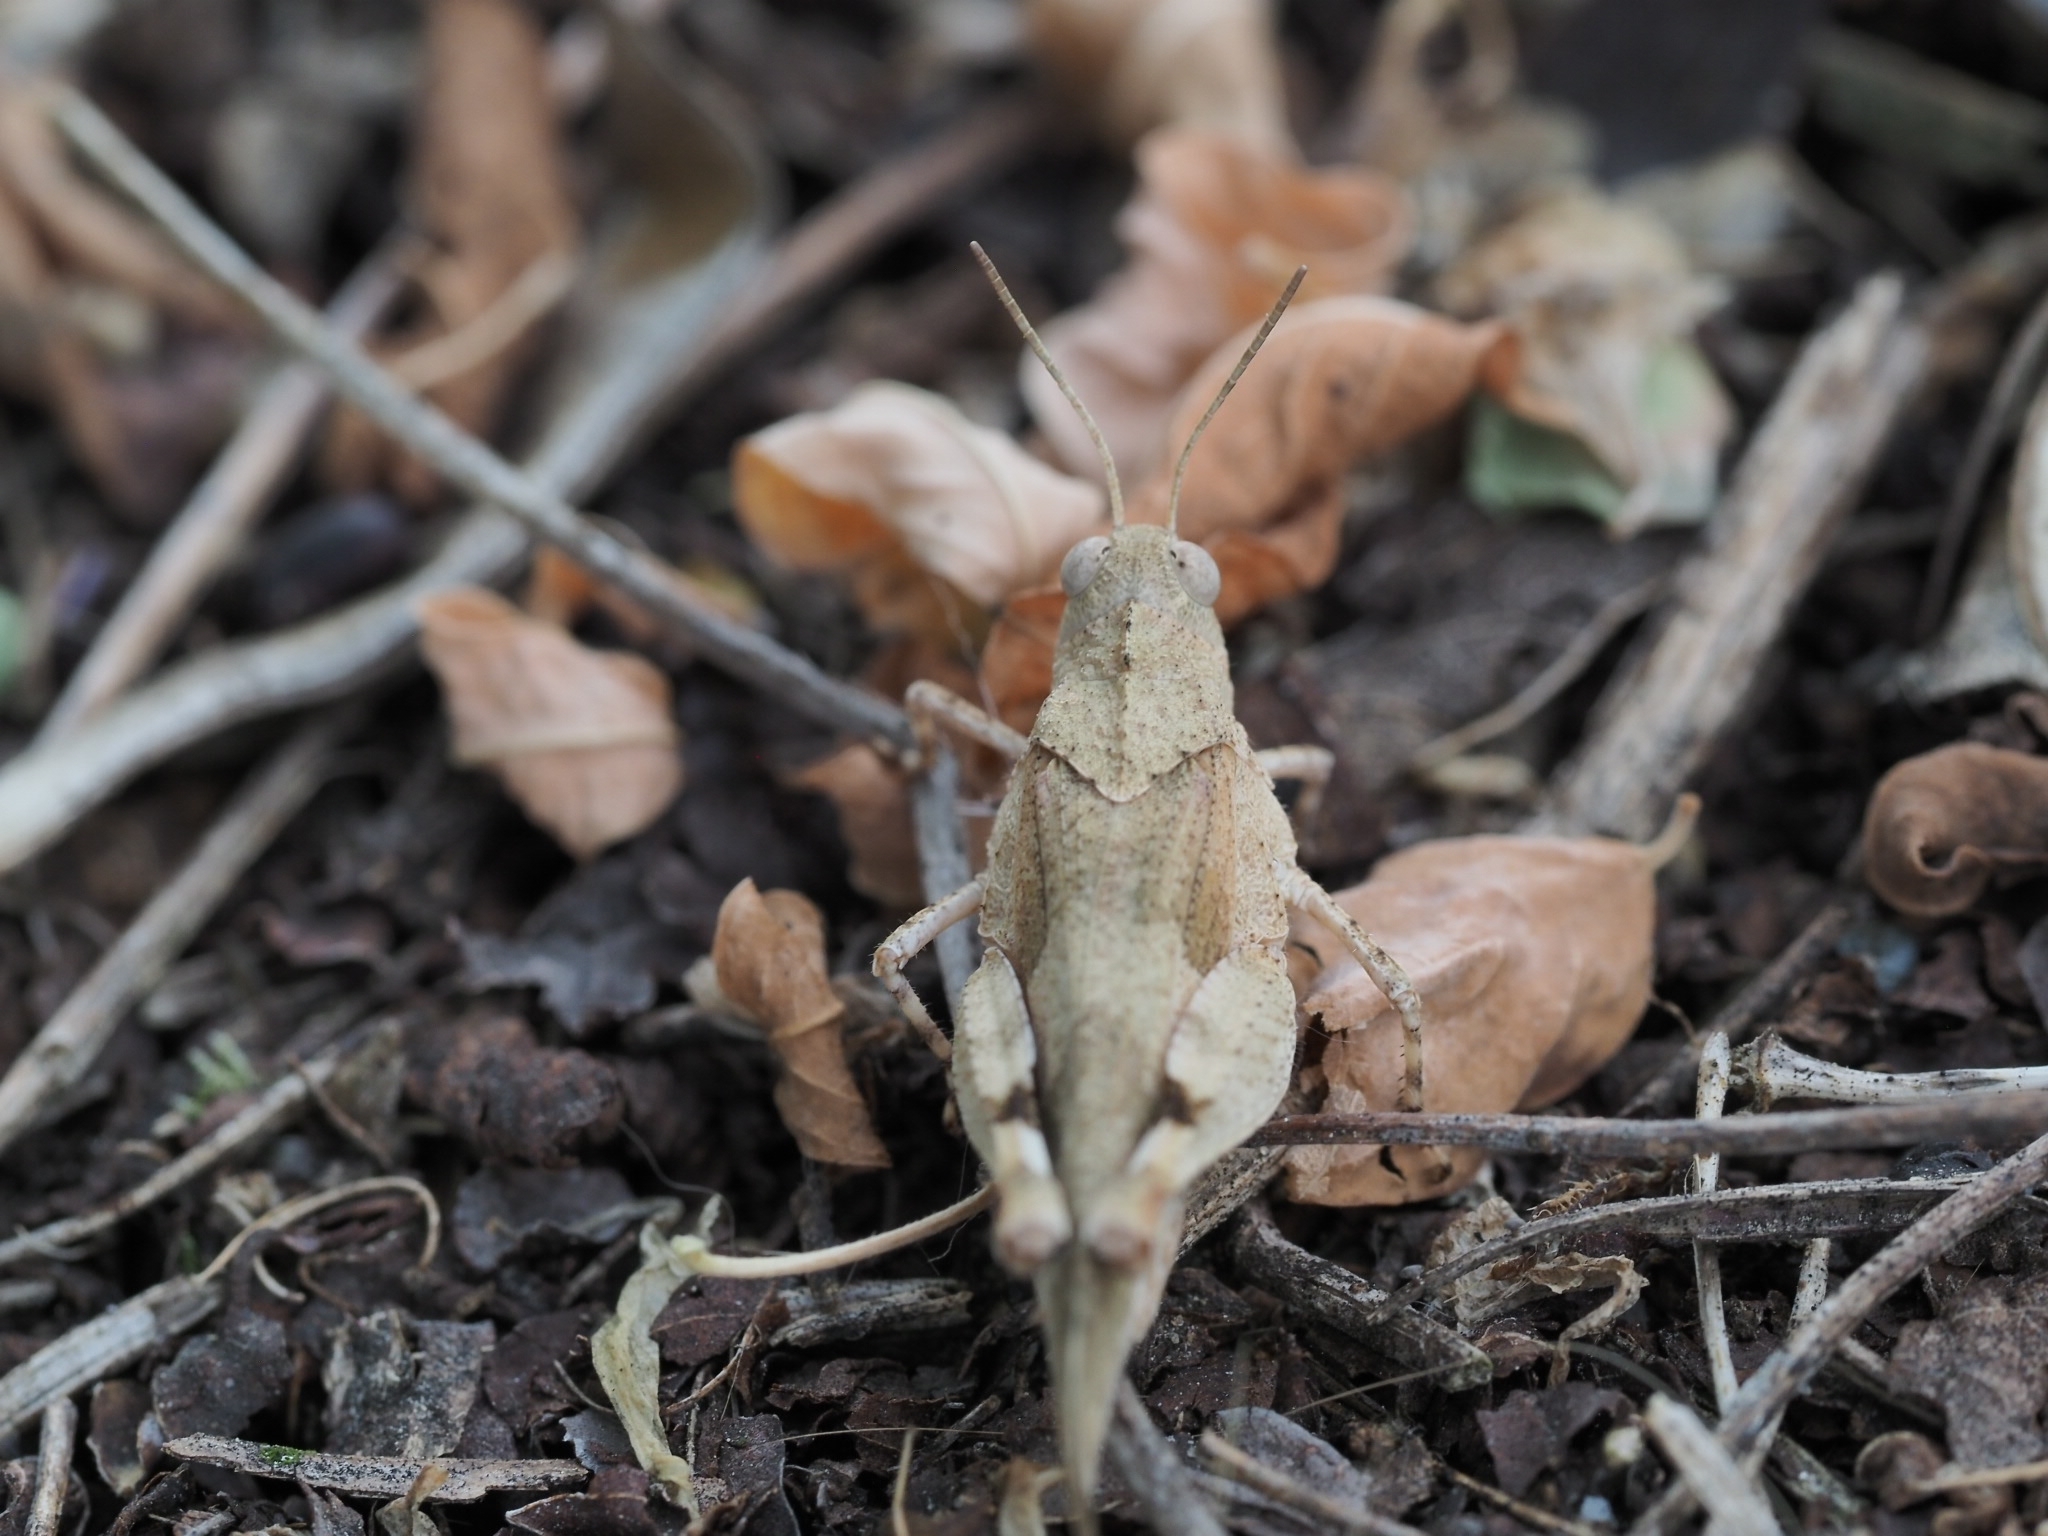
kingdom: Animalia
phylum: Arthropoda
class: Insecta
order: Orthoptera
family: Acrididae
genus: Oedipoda
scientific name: Oedipoda caerulescens
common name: Blue-winged grasshopper
